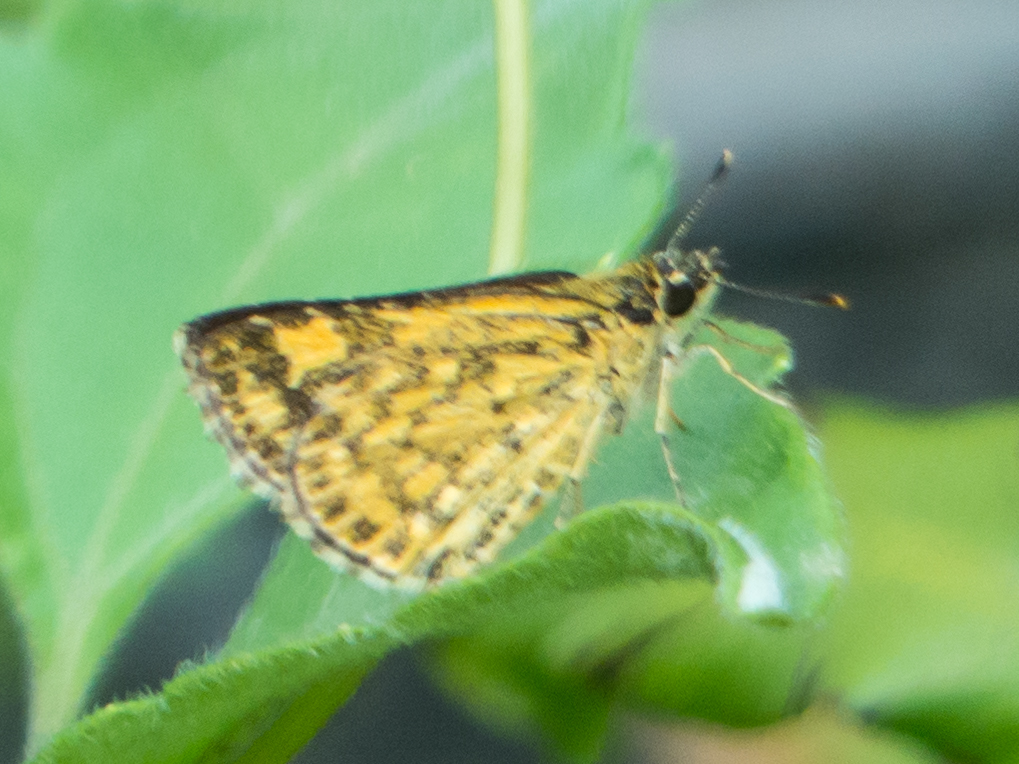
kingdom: Animalia
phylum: Arthropoda
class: Insecta
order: Lepidoptera
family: Hesperiidae
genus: Ampittia
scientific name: Ampittia dioscorides
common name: Common bush hopper
